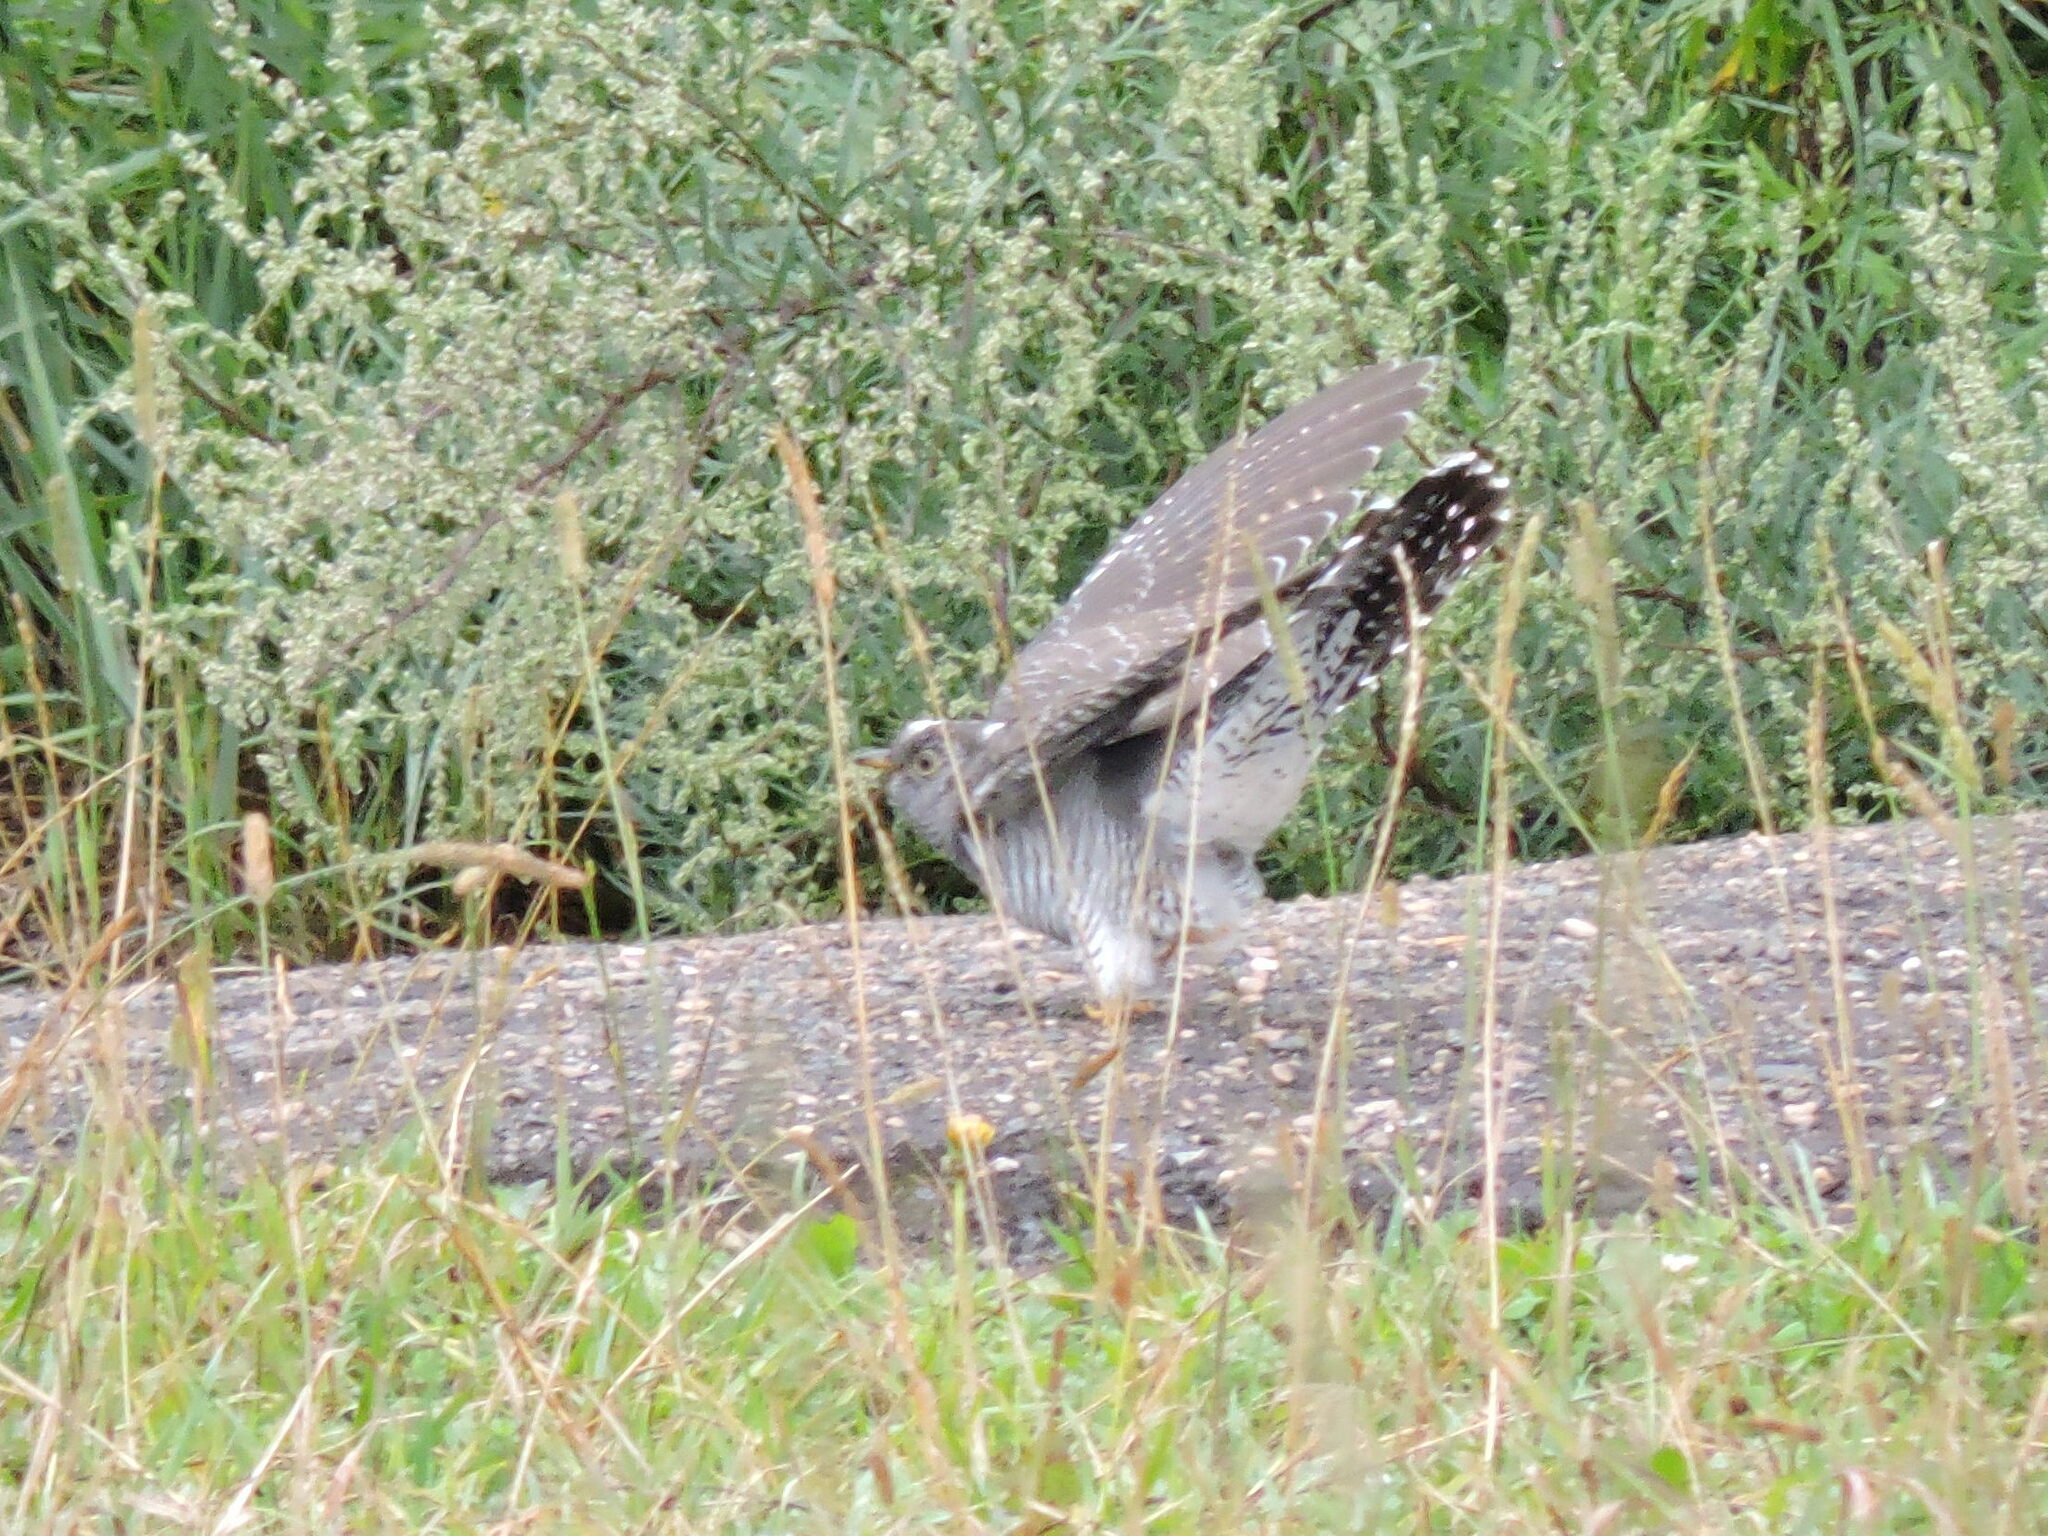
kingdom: Animalia
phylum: Chordata
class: Aves
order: Cuculiformes
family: Cuculidae
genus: Cuculus
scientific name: Cuculus canorus
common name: Common cuckoo
